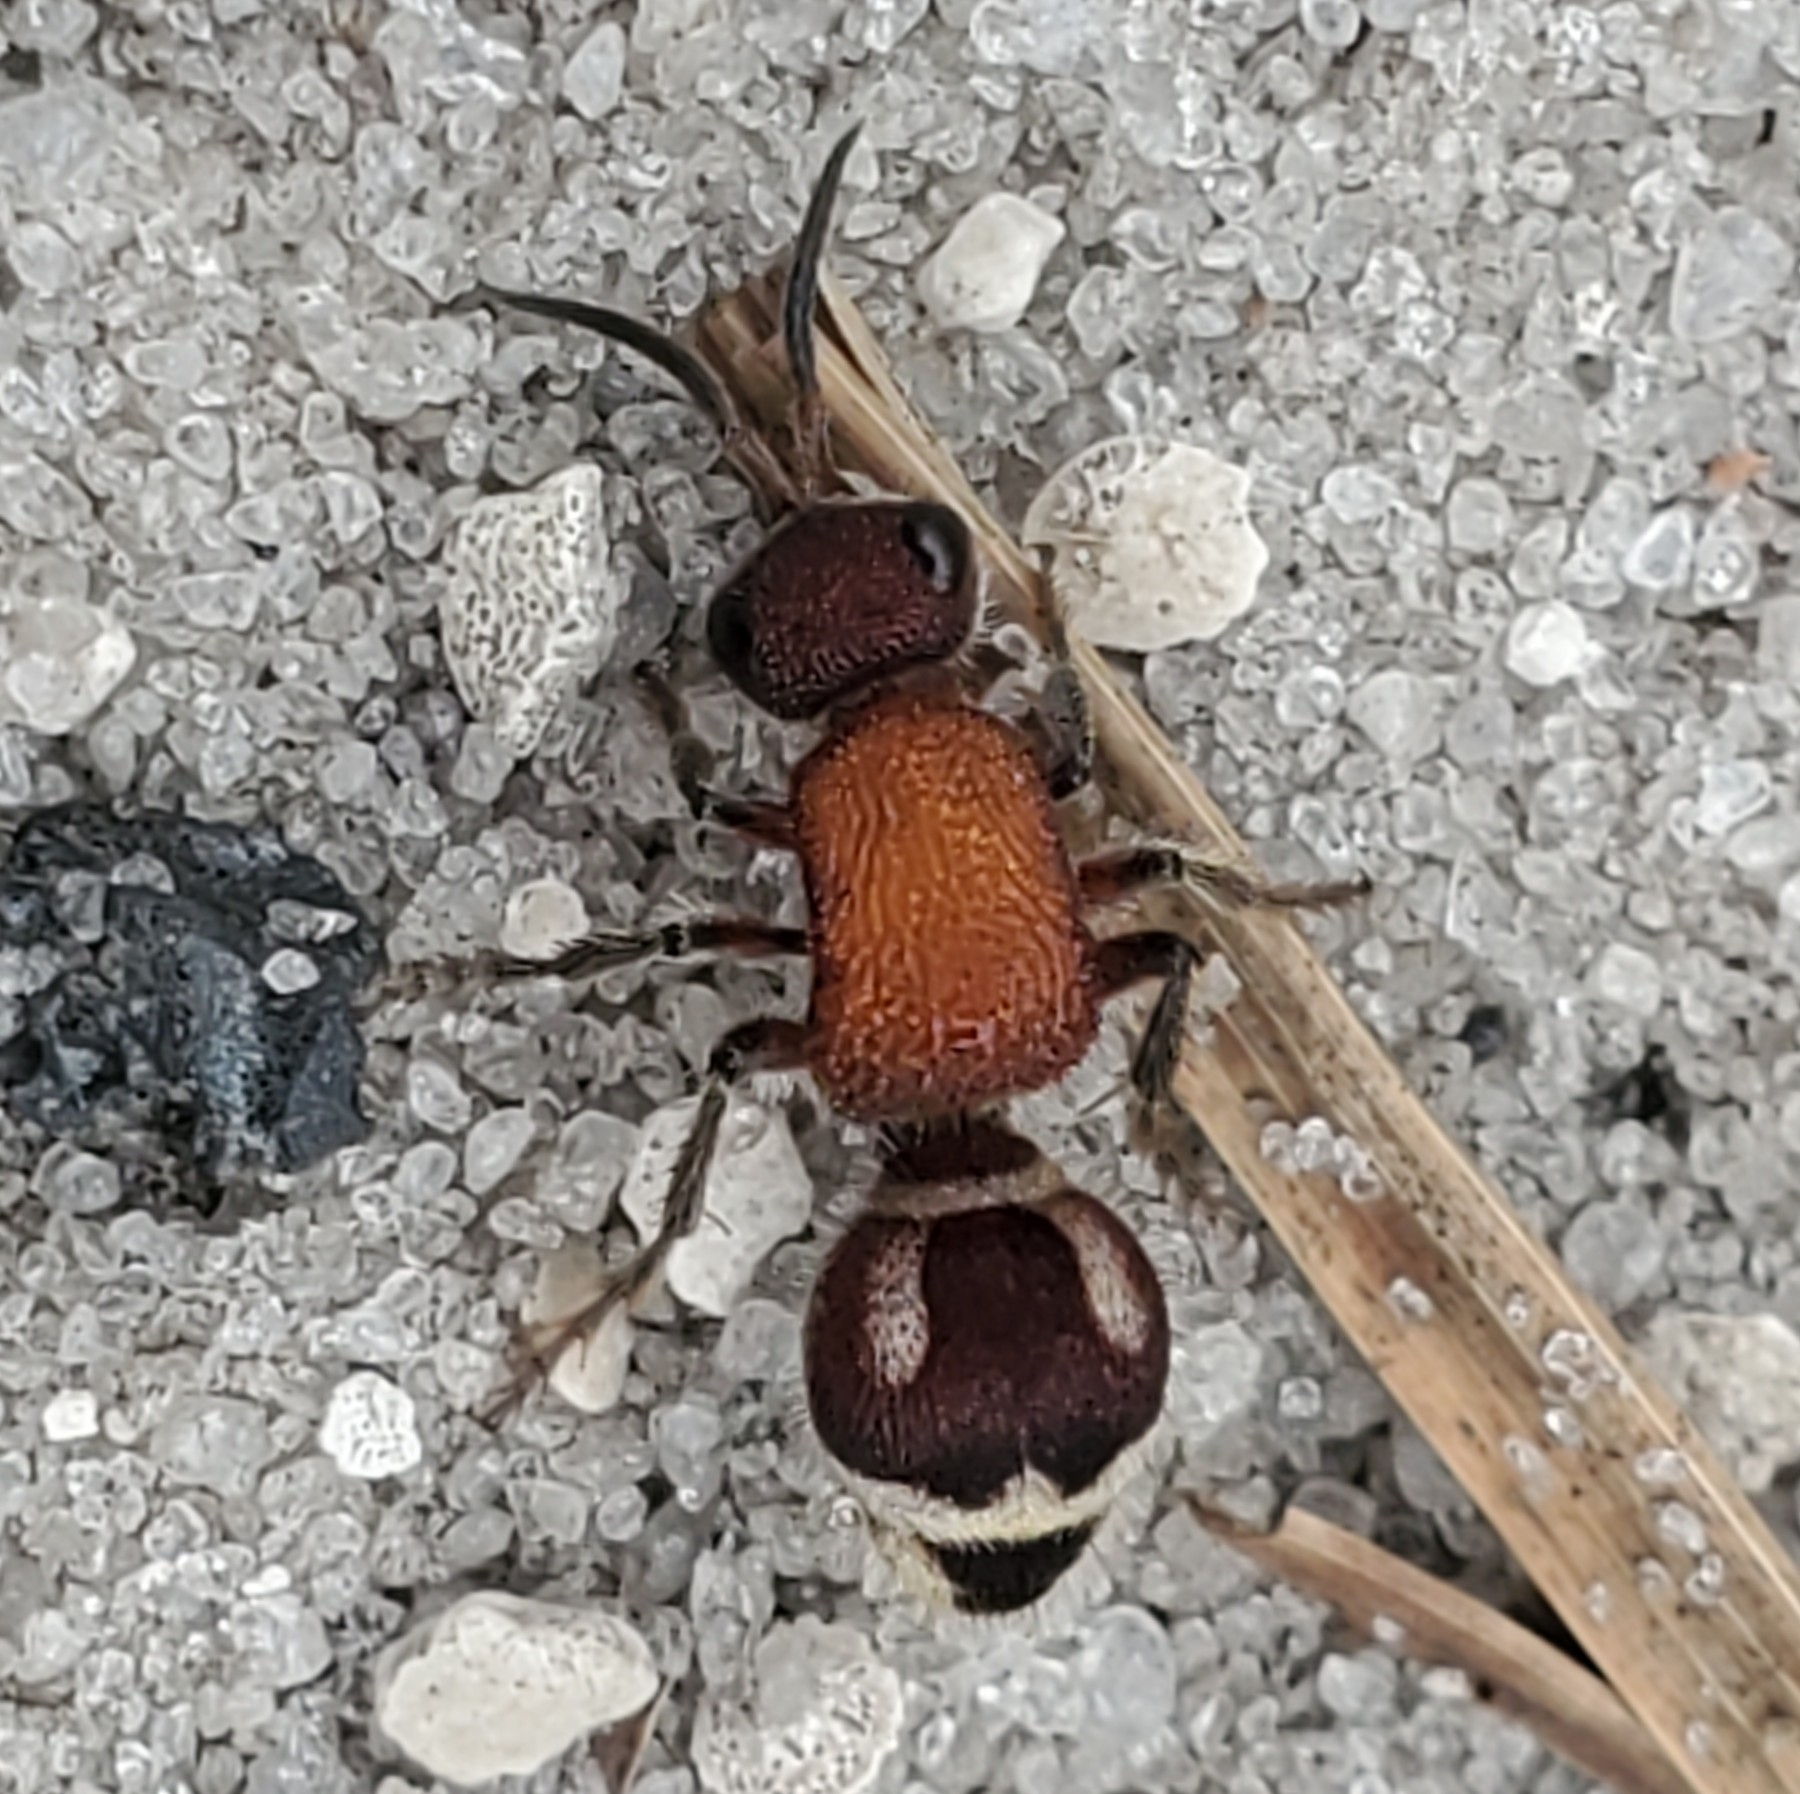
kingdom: Animalia
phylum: Arthropoda
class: Insecta
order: Hymenoptera
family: Mutillidae
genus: Timulla
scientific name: Timulla
